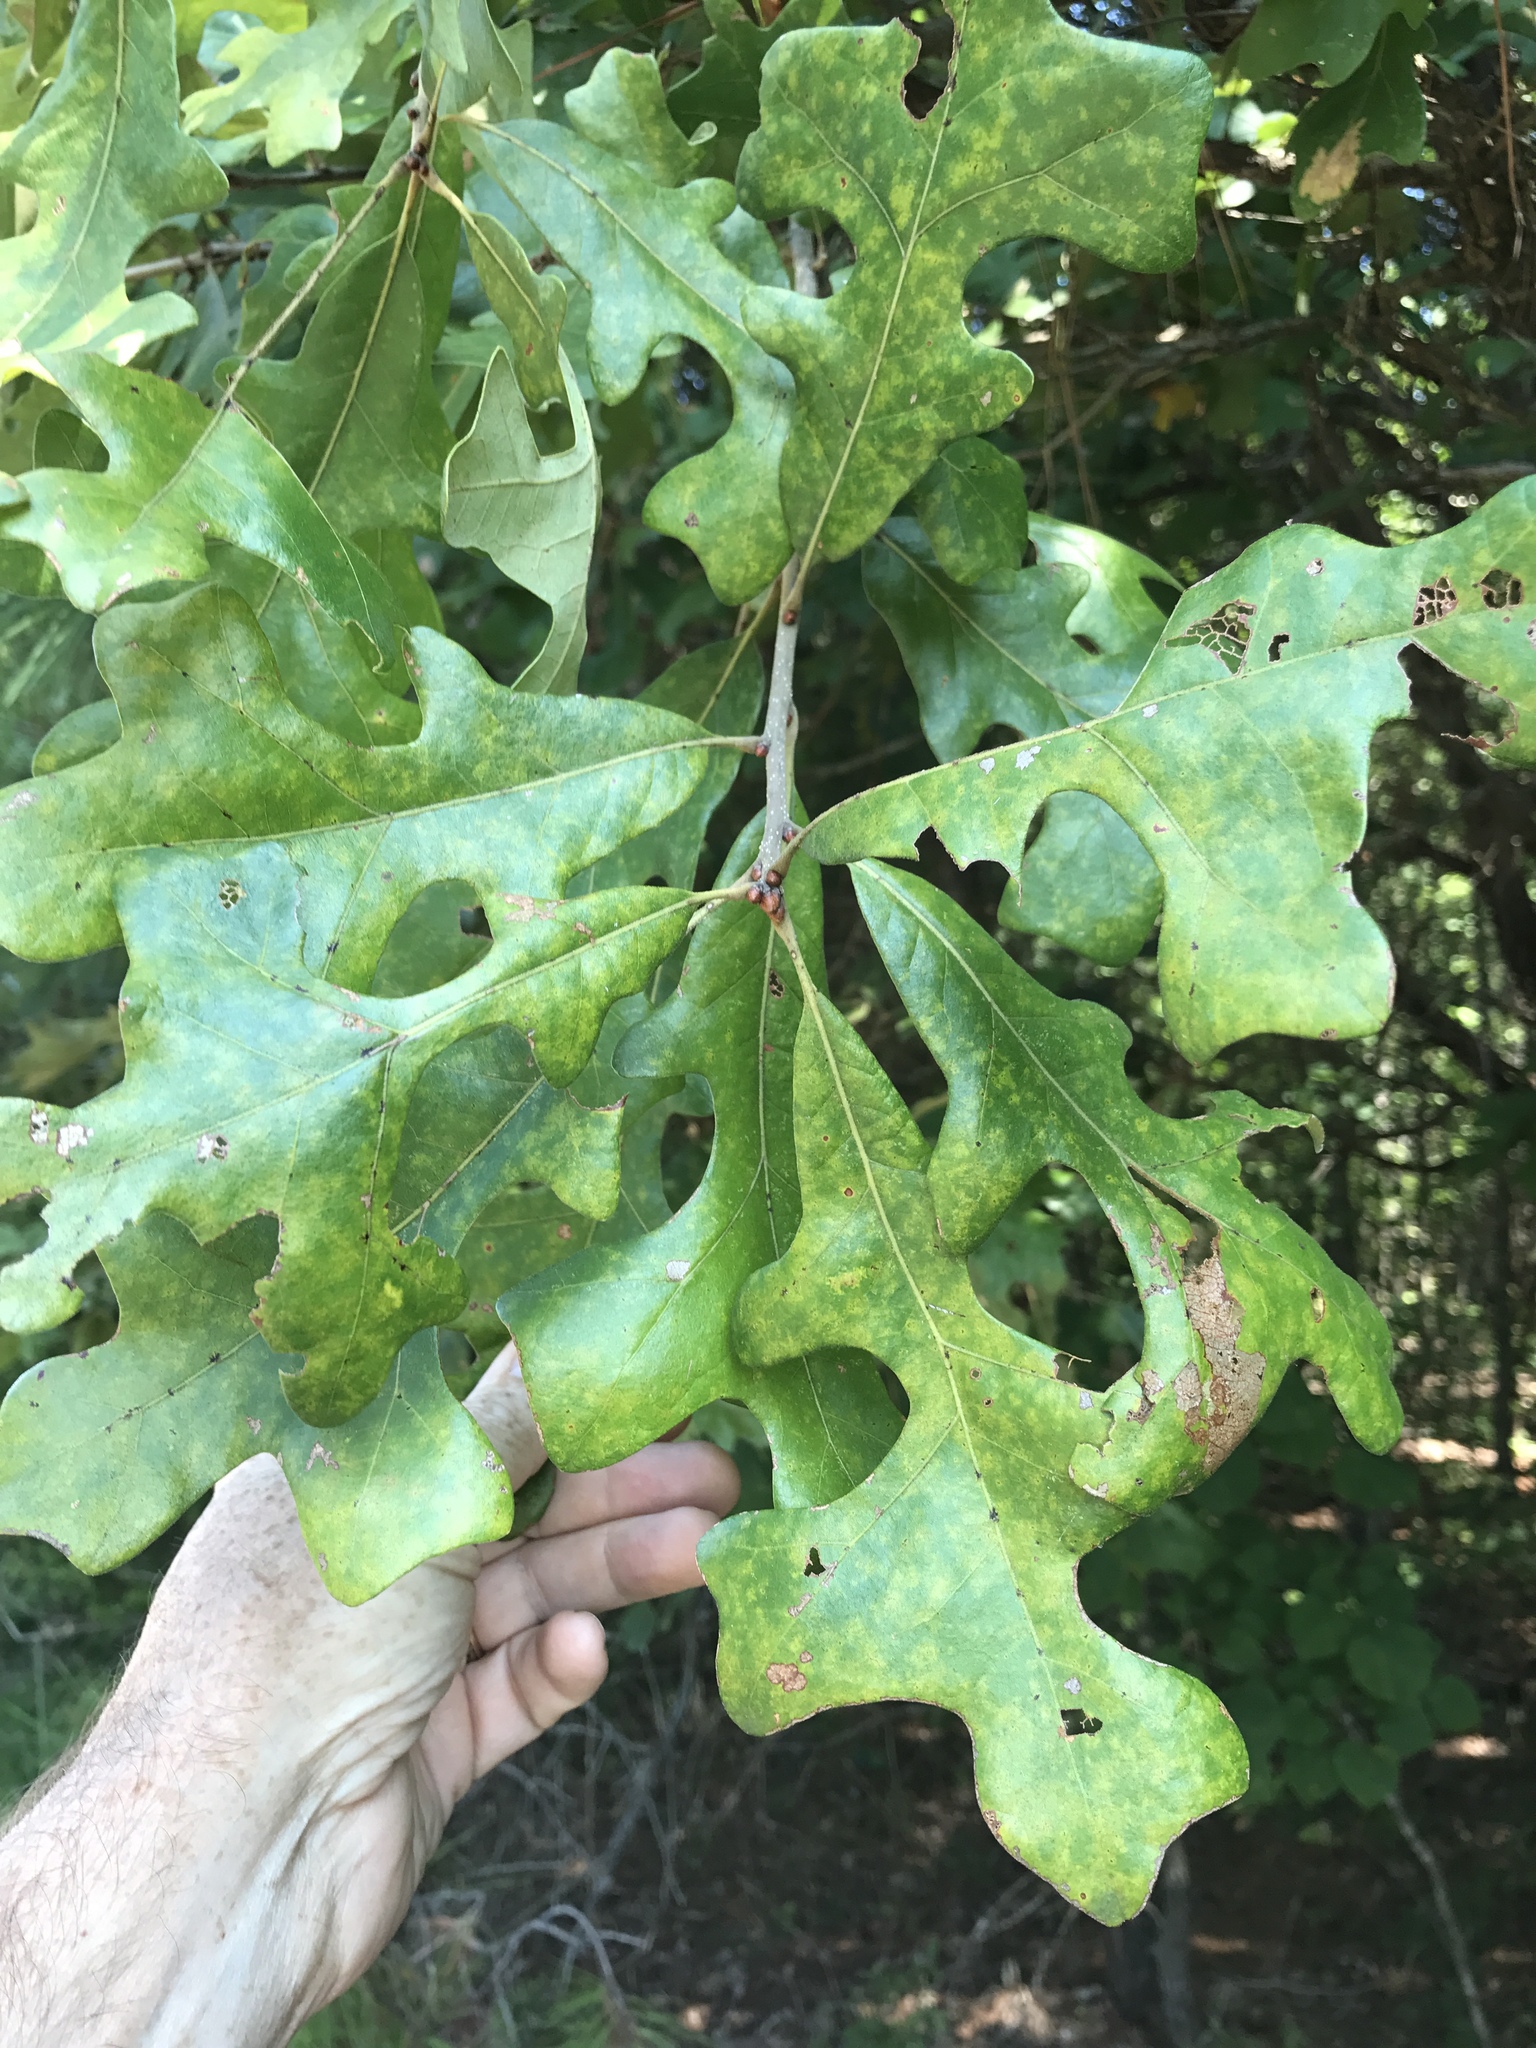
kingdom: Plantae
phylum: Tracheophyta
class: Magnoliopsida
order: Fagales
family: Fagaceae
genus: Quercus
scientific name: Quercus stellata
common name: Post oak
